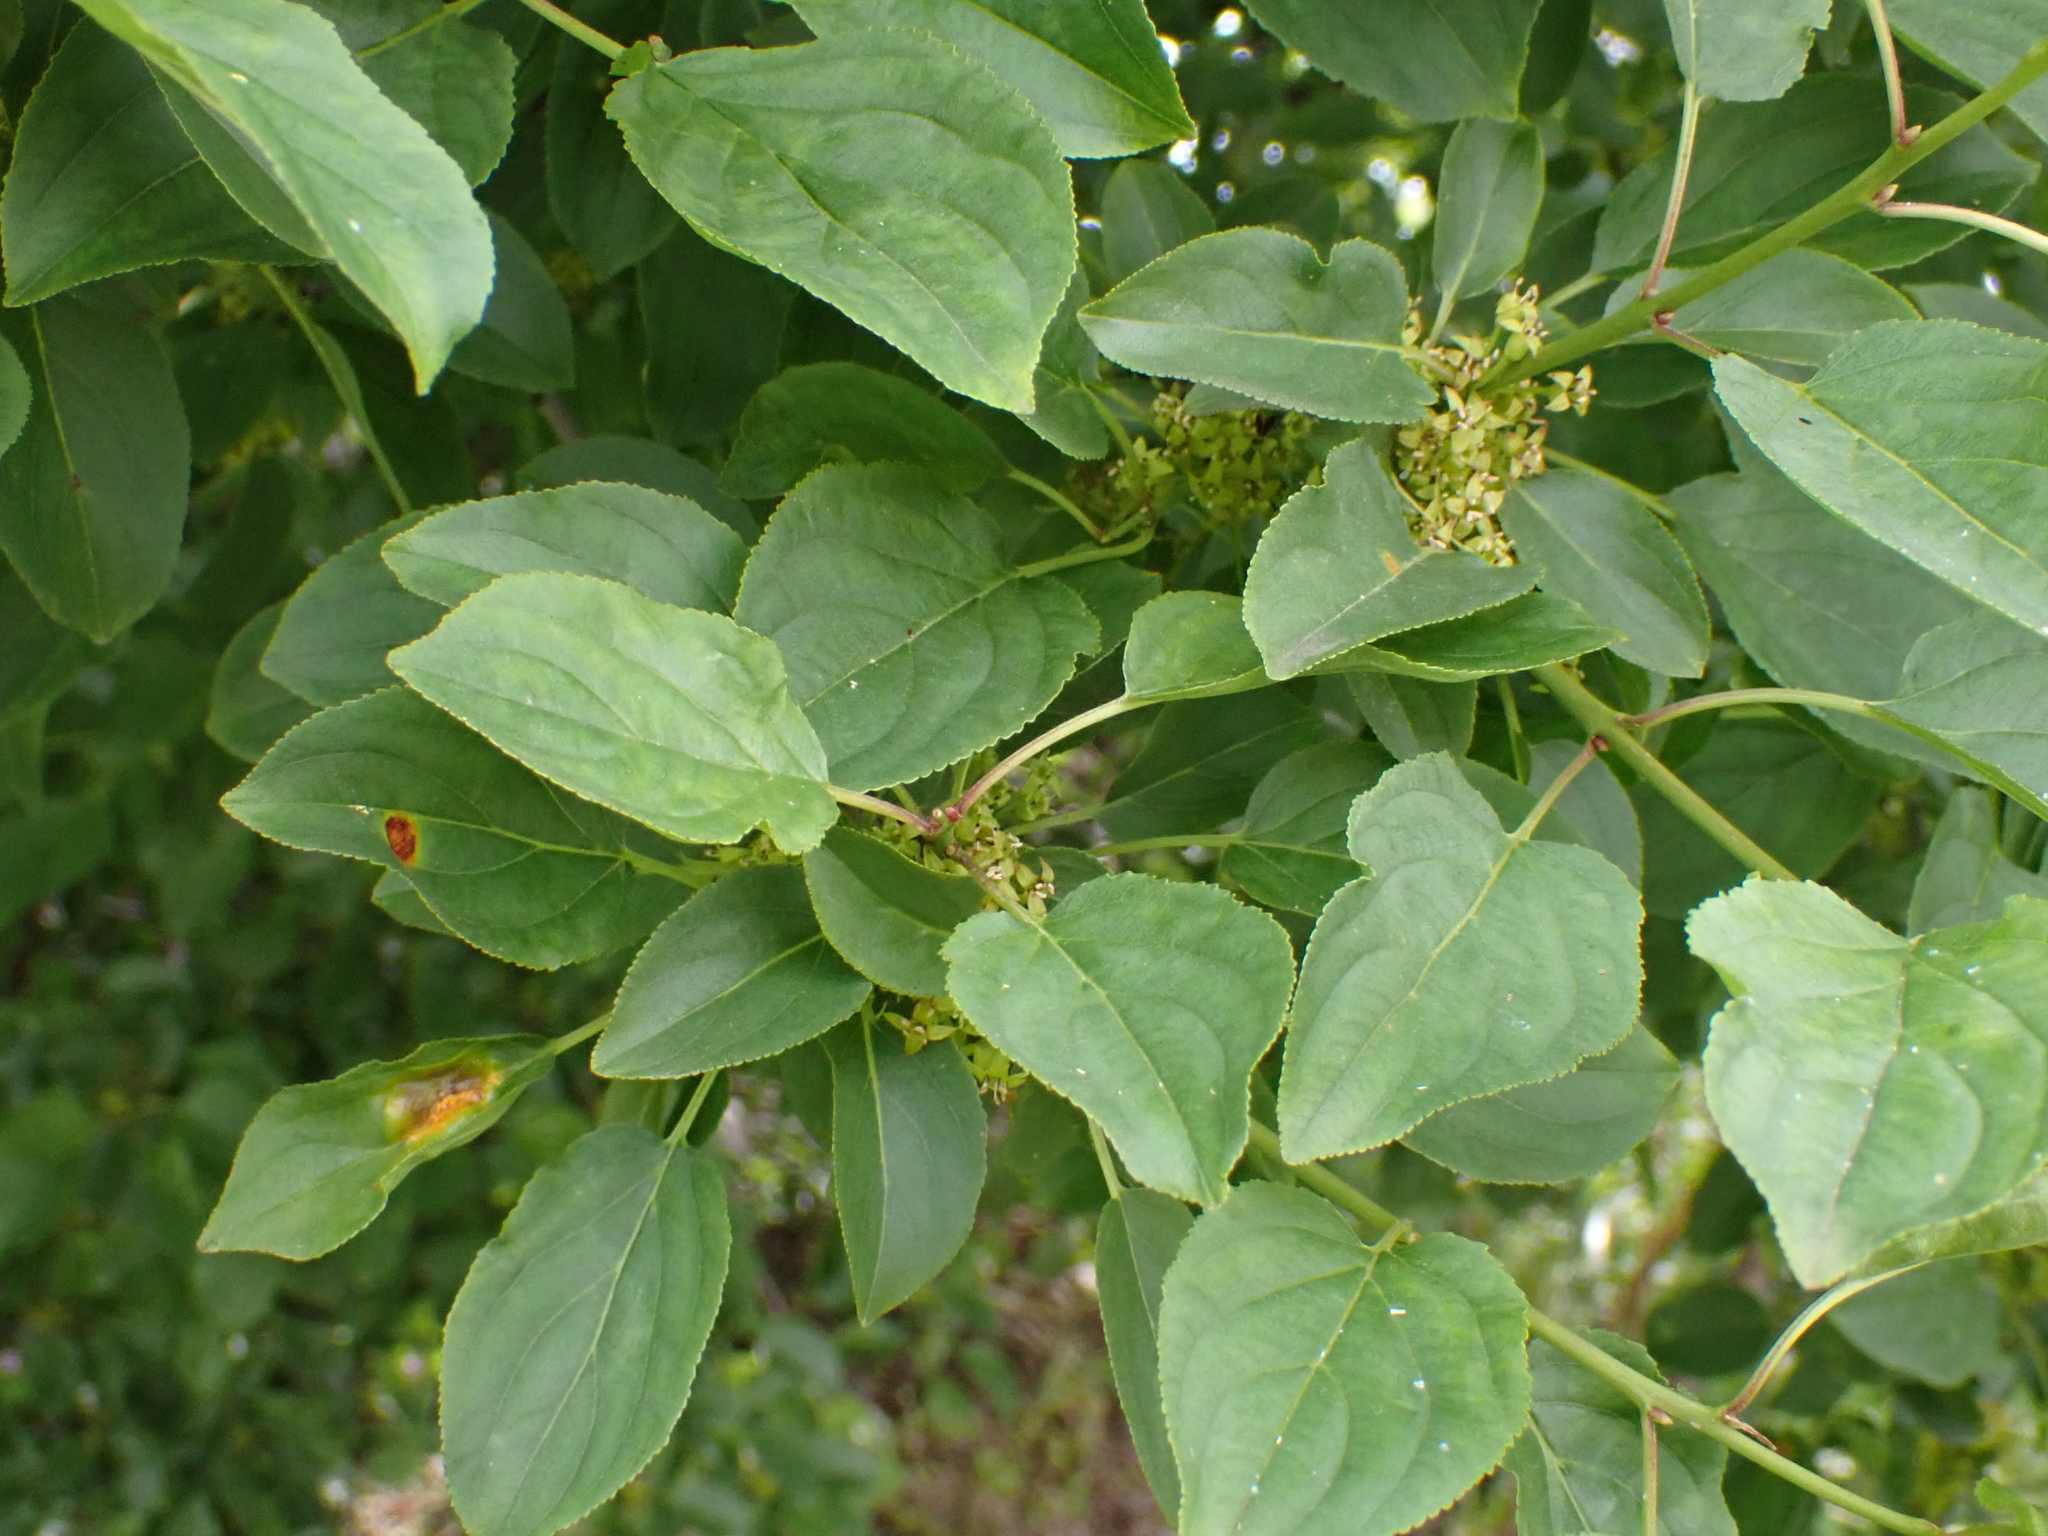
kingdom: Plantae
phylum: Tracheophyta
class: Magnoliopsida
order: Rosales
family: Rhamnaceae
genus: Rhamnus
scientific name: Rhamnus cathartica
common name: Common buckthorn
